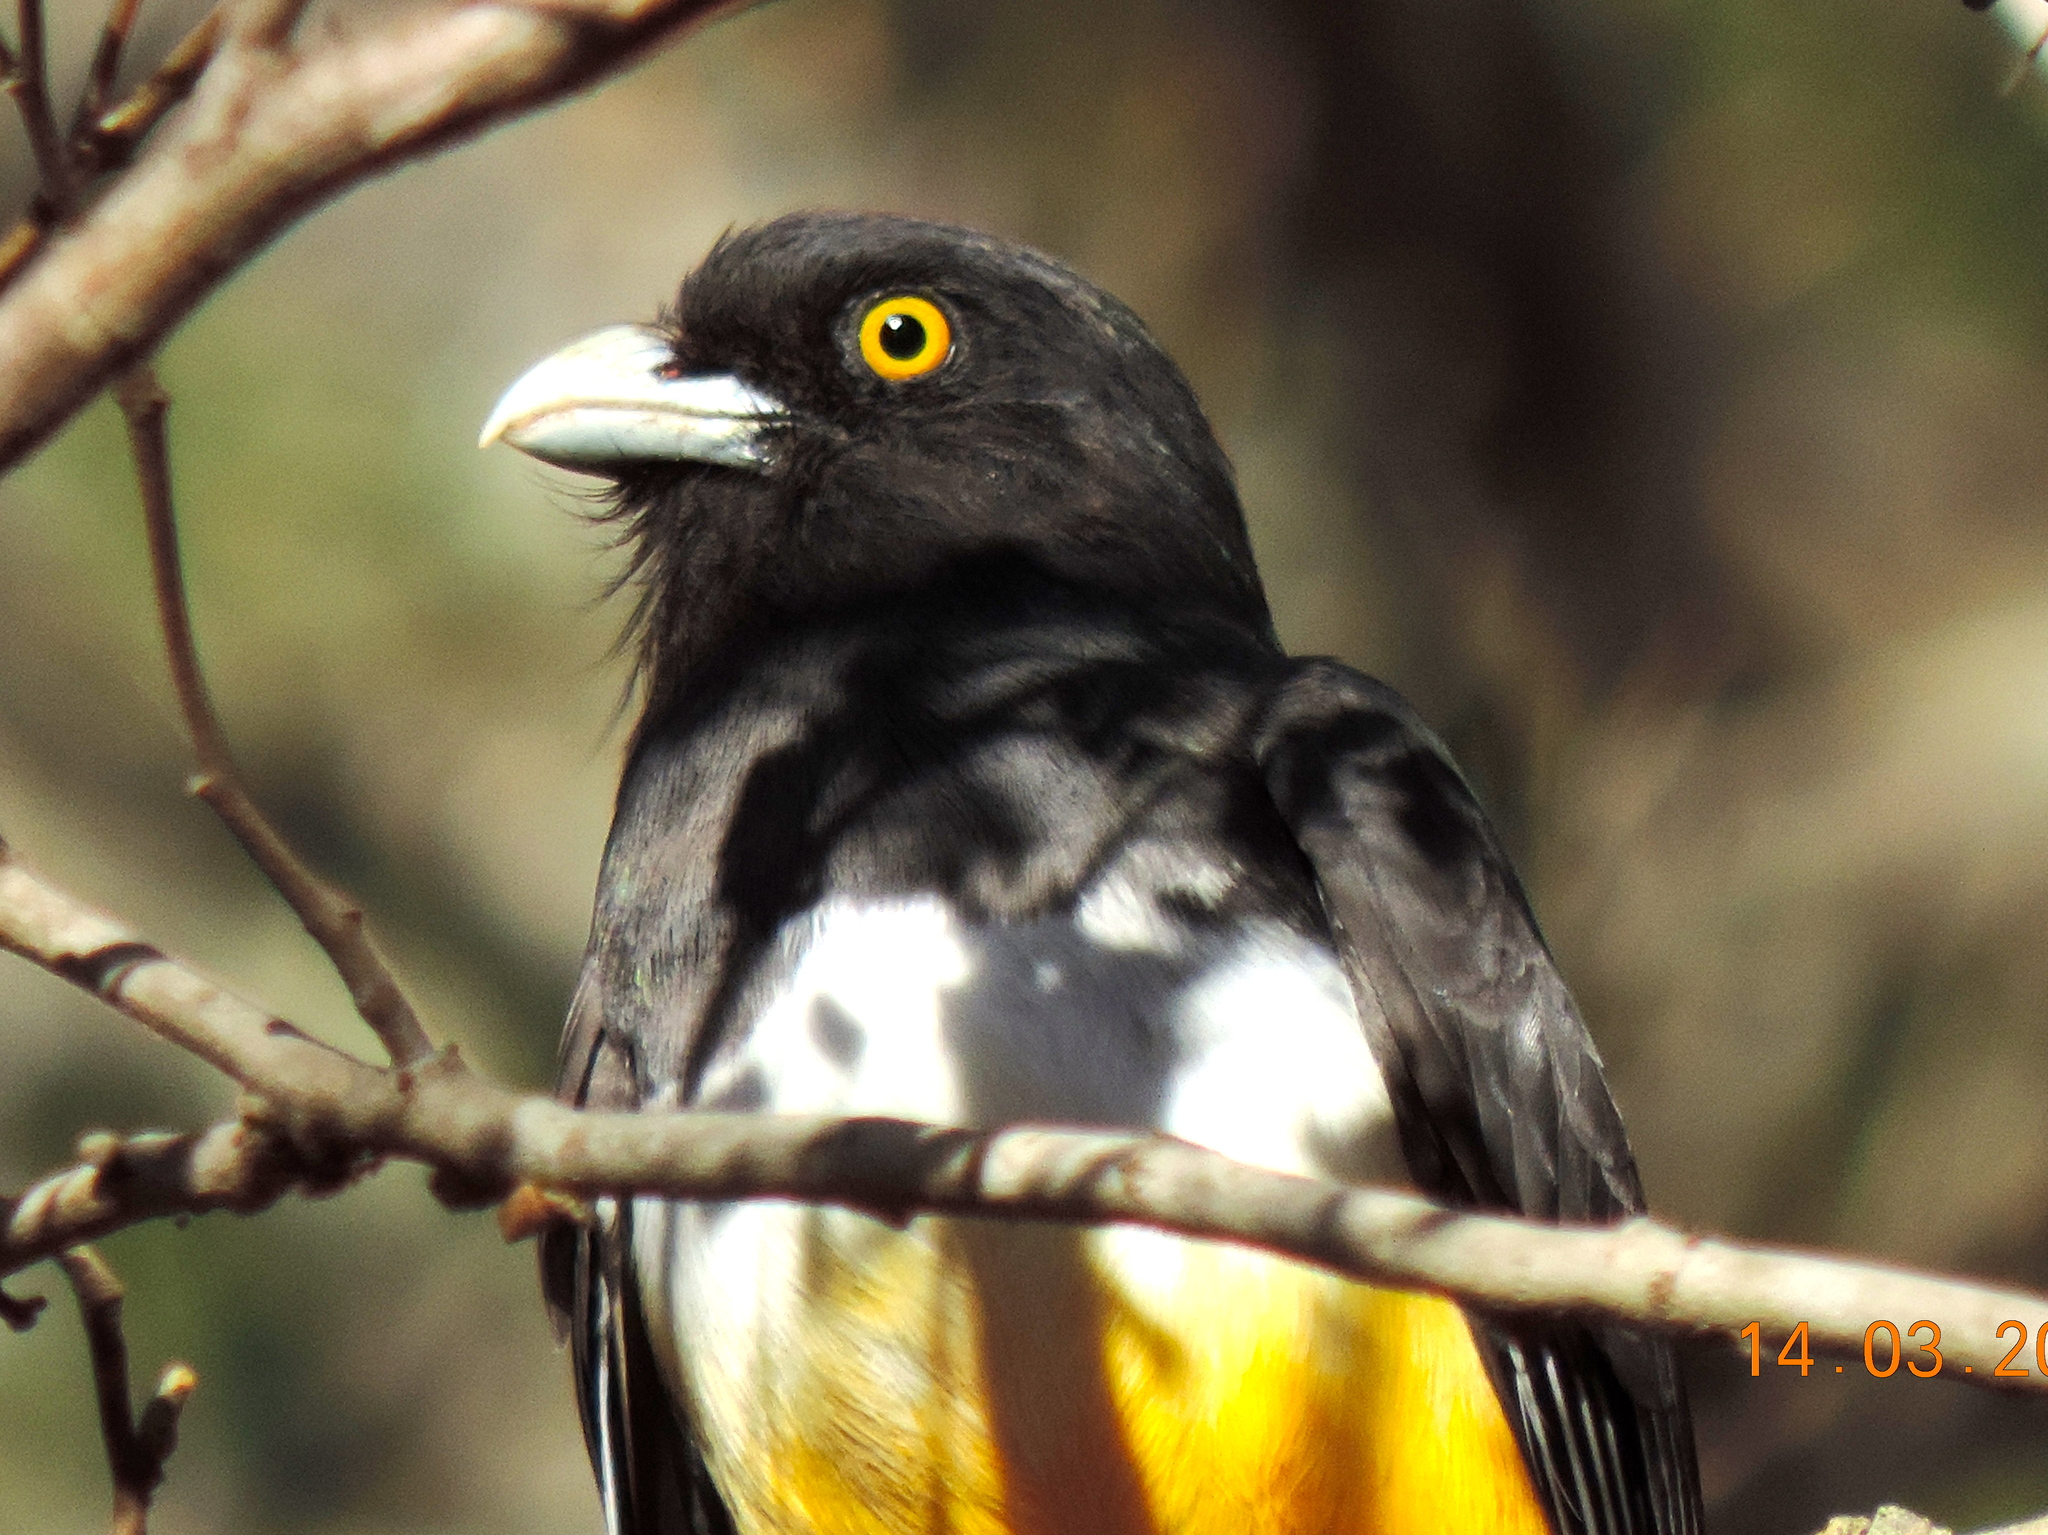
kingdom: Animalia
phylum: Chordata
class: Aves
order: Trogoniformes
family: Trogonidae
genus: Trogon
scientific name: Trogon citreolus
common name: Citreoline trogon
